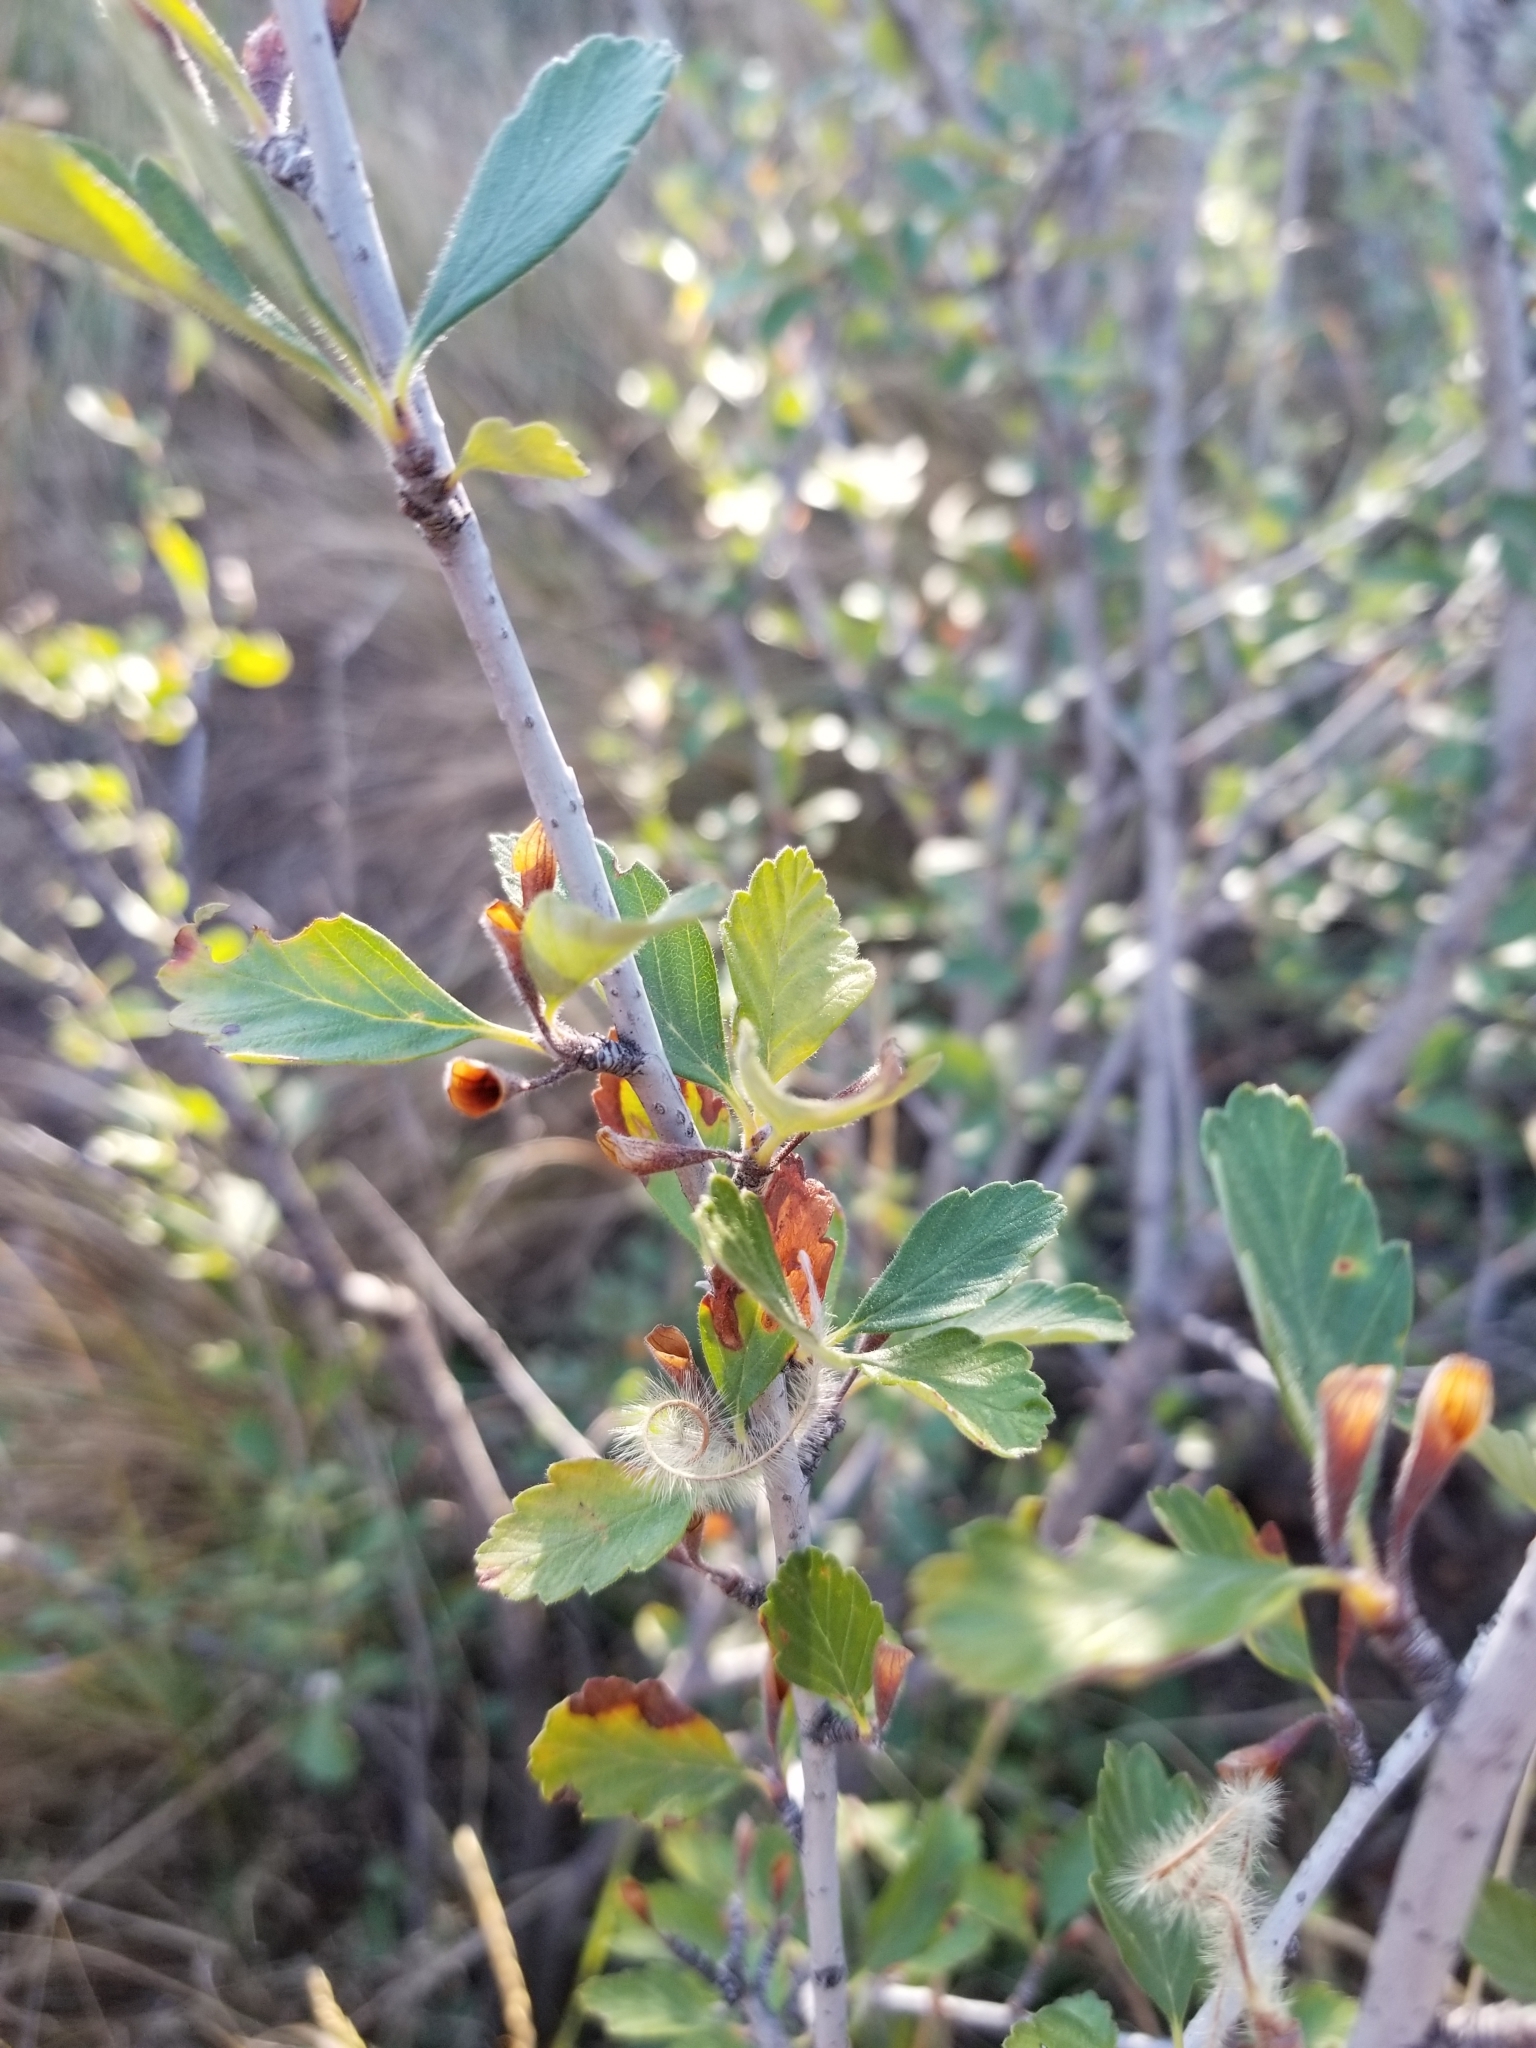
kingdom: Plantae
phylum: Tracheophyta
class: Magnoliopsida
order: Rosales
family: Rosaceae
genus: Cercocarpus
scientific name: Cercocarpus montanus
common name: Alder-leaf cercocarpus
